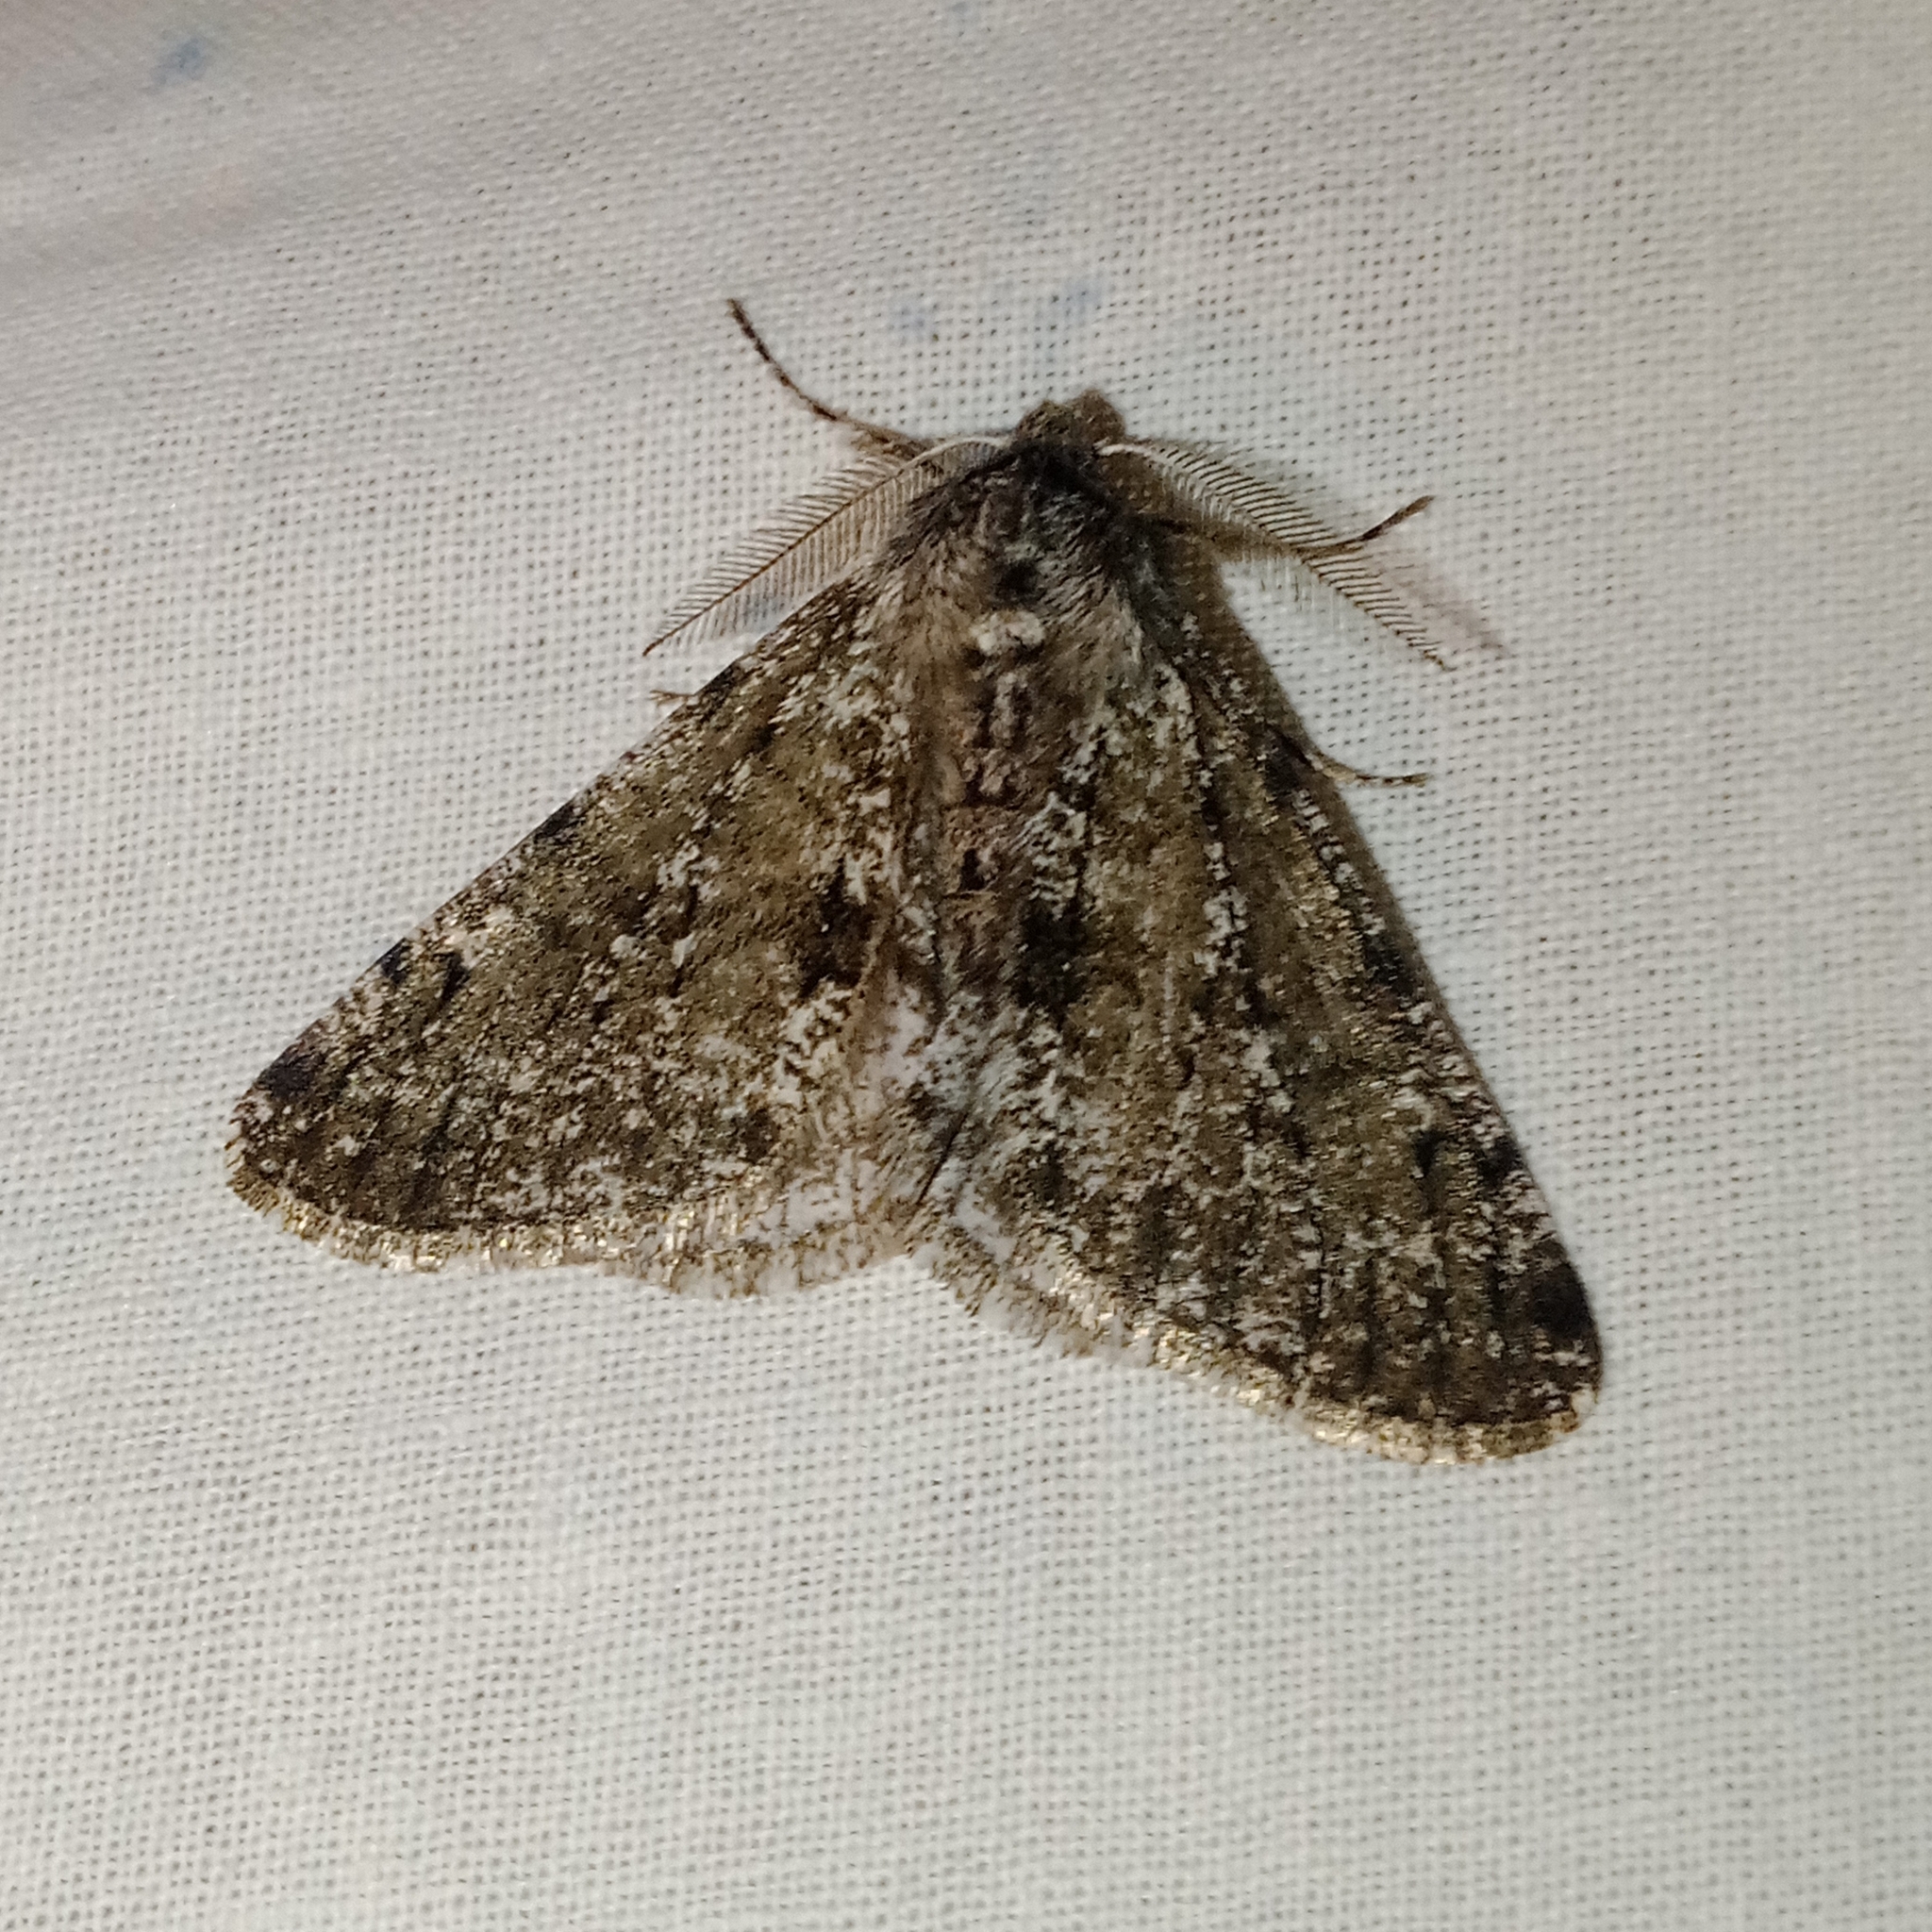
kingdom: Animalia
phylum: Arthropoda
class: Insecta
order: Lepidoptera
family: Geometridae
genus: Phigalia
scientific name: Phigalia pilosaria
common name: Pale brindled beauty
